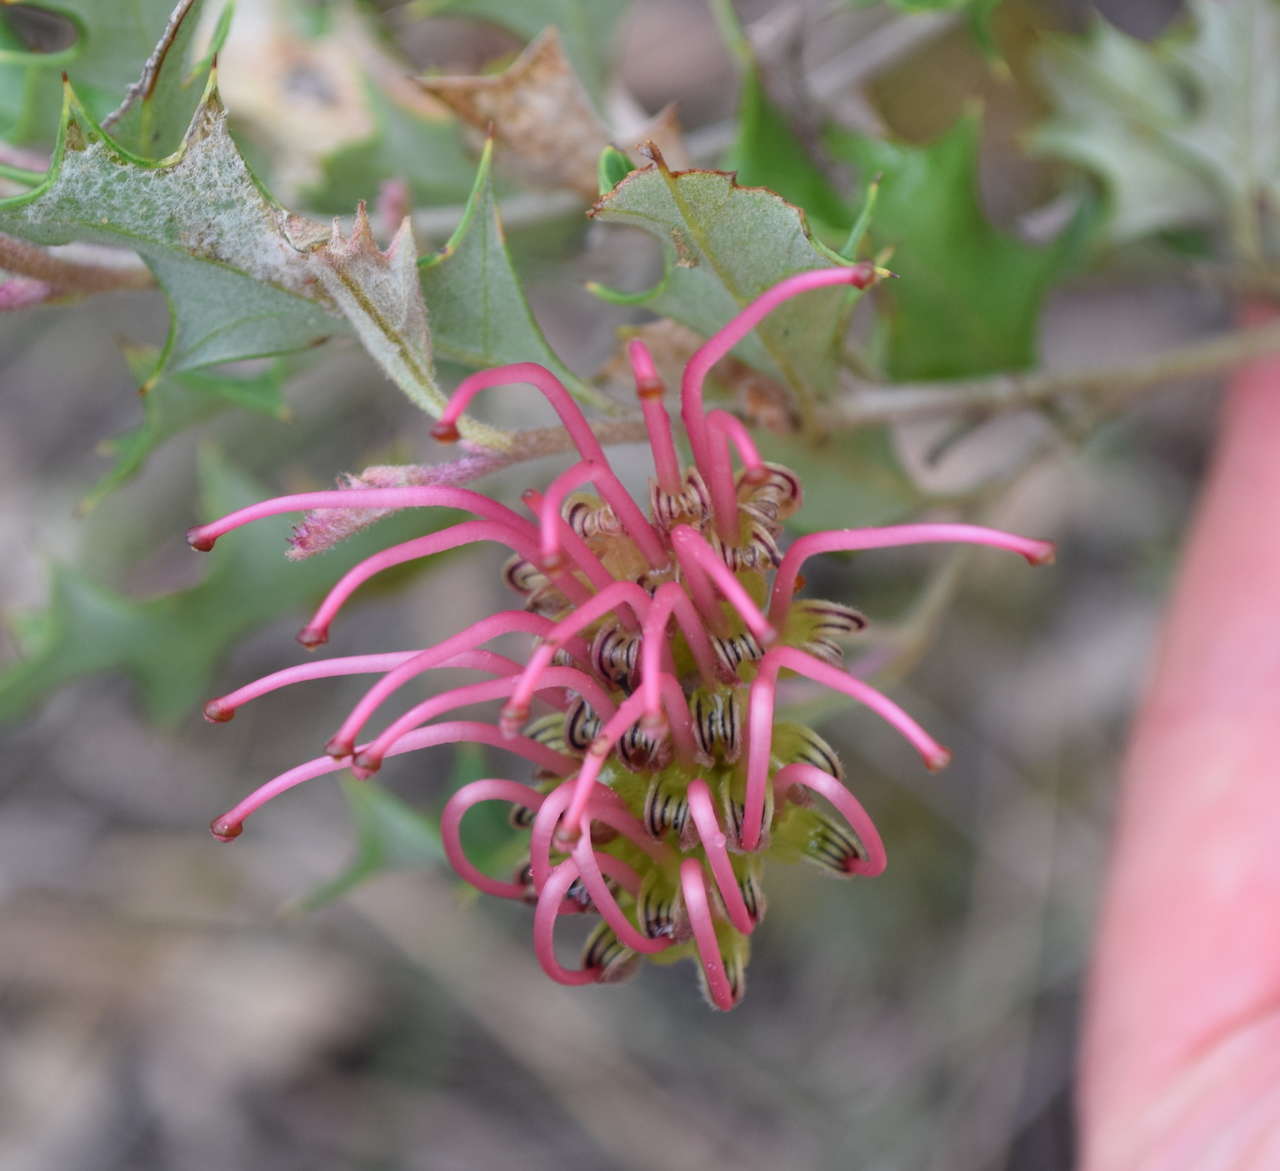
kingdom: Plantae
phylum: Tracheophyta
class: Magnoliopsida
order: Proteales
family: Proteaceae
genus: Grevillea
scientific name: Grevillea aquifolium
